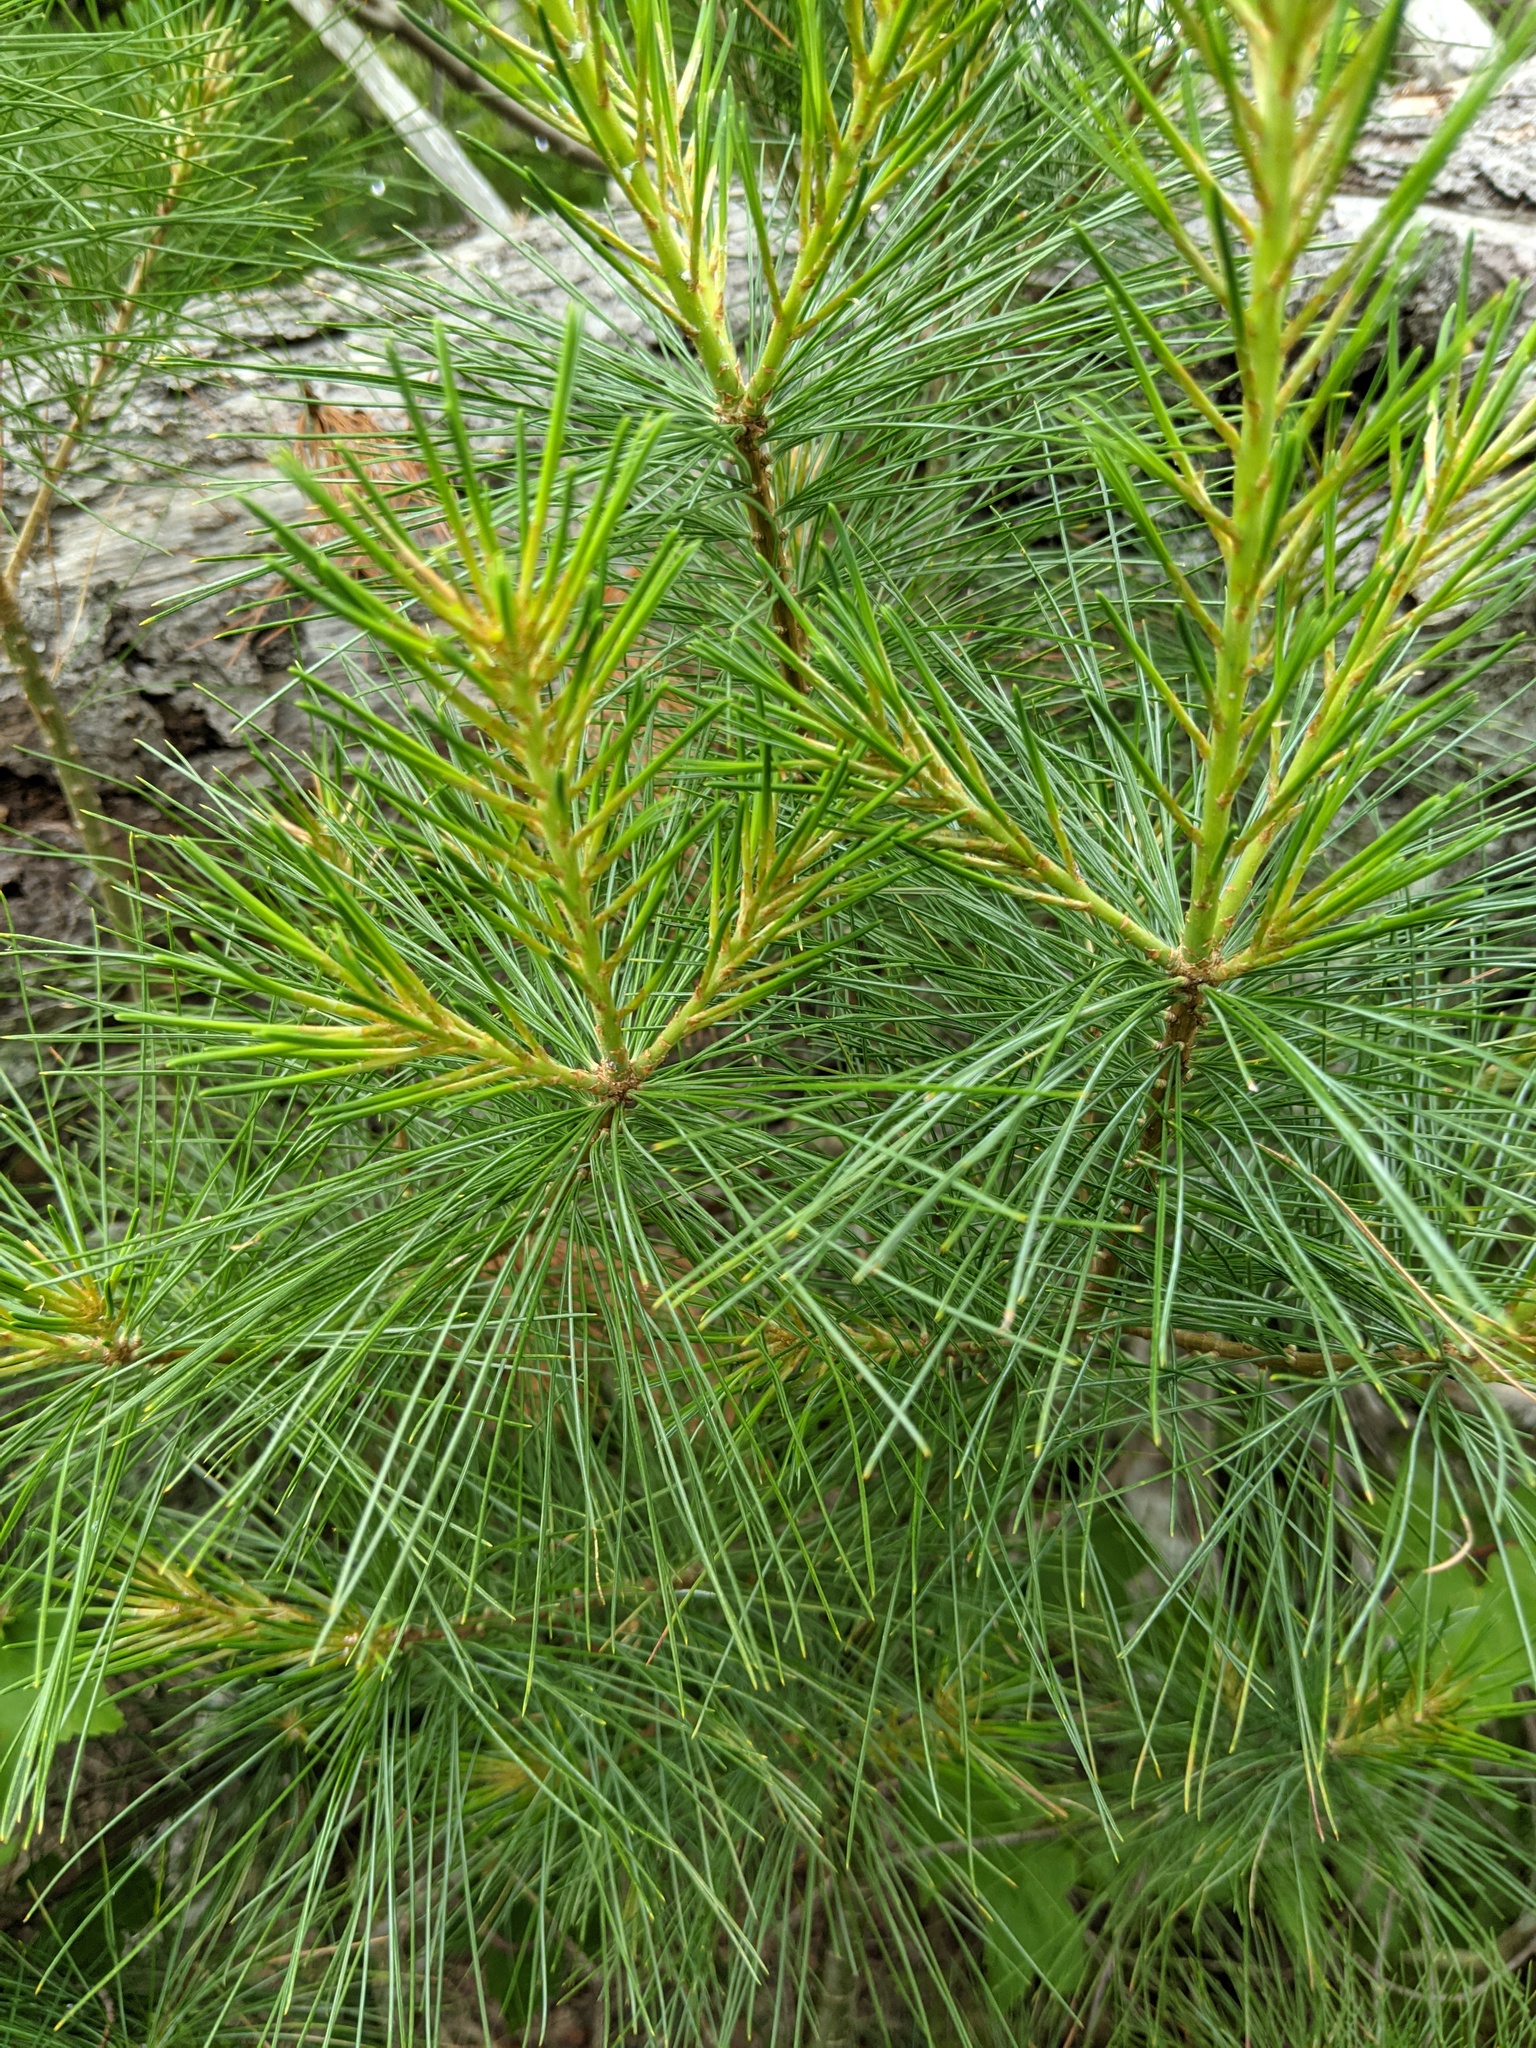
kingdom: Plantae
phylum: Tracheophyta
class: Pinopsida
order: Pinales
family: Pinaceae
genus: Pinus
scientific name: Pinus strobus
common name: Weymouth pine
